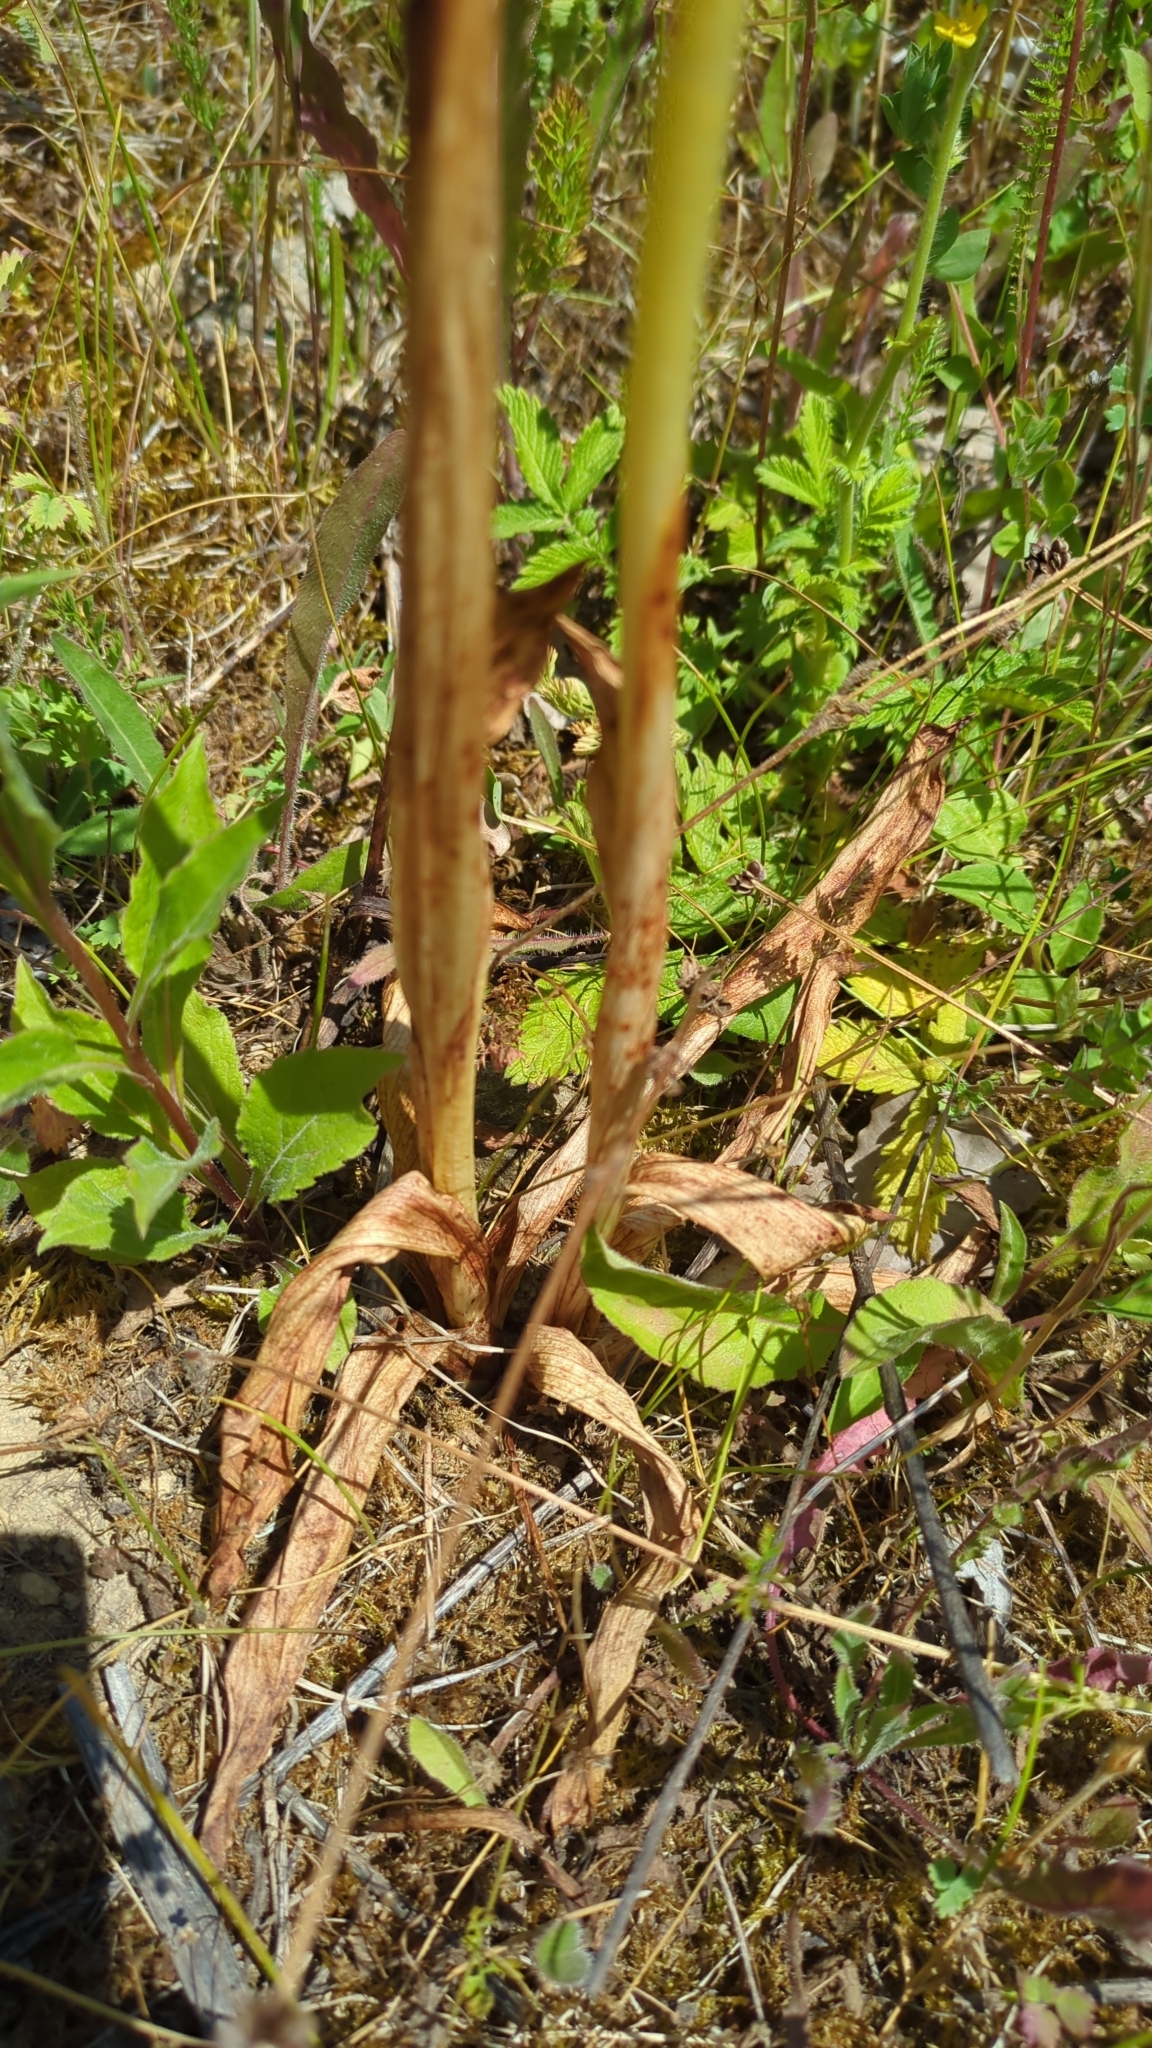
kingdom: Plantae
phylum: Tracheophyta
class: Liliopsida
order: Asparagales
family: Orchidaceae
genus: Himantoglossum
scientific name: Himantoglossum hircinum
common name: Lizard orchid
